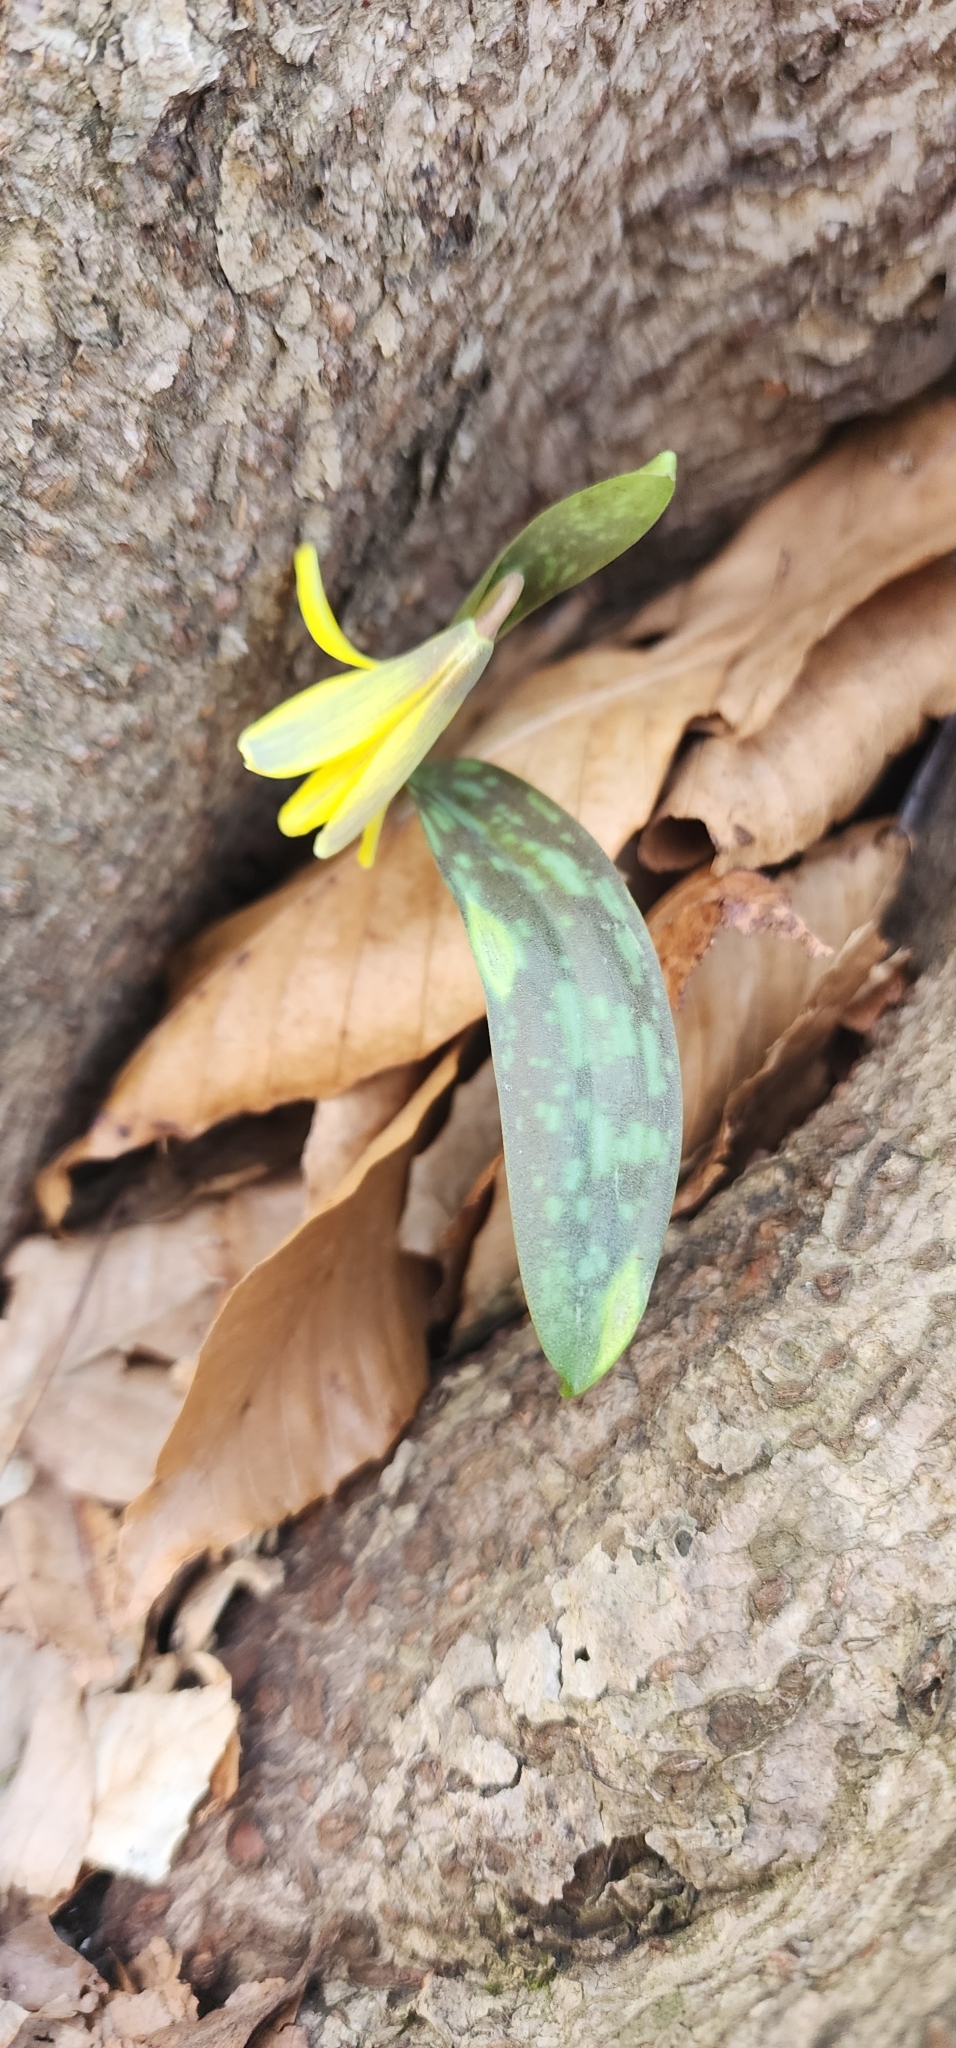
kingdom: Plantae
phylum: Tracheophyta
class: Liliopsida
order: Liliales
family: Liliaceae
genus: Erythronium
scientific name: Erythronium americanum
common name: Yellow adder's-tongue
